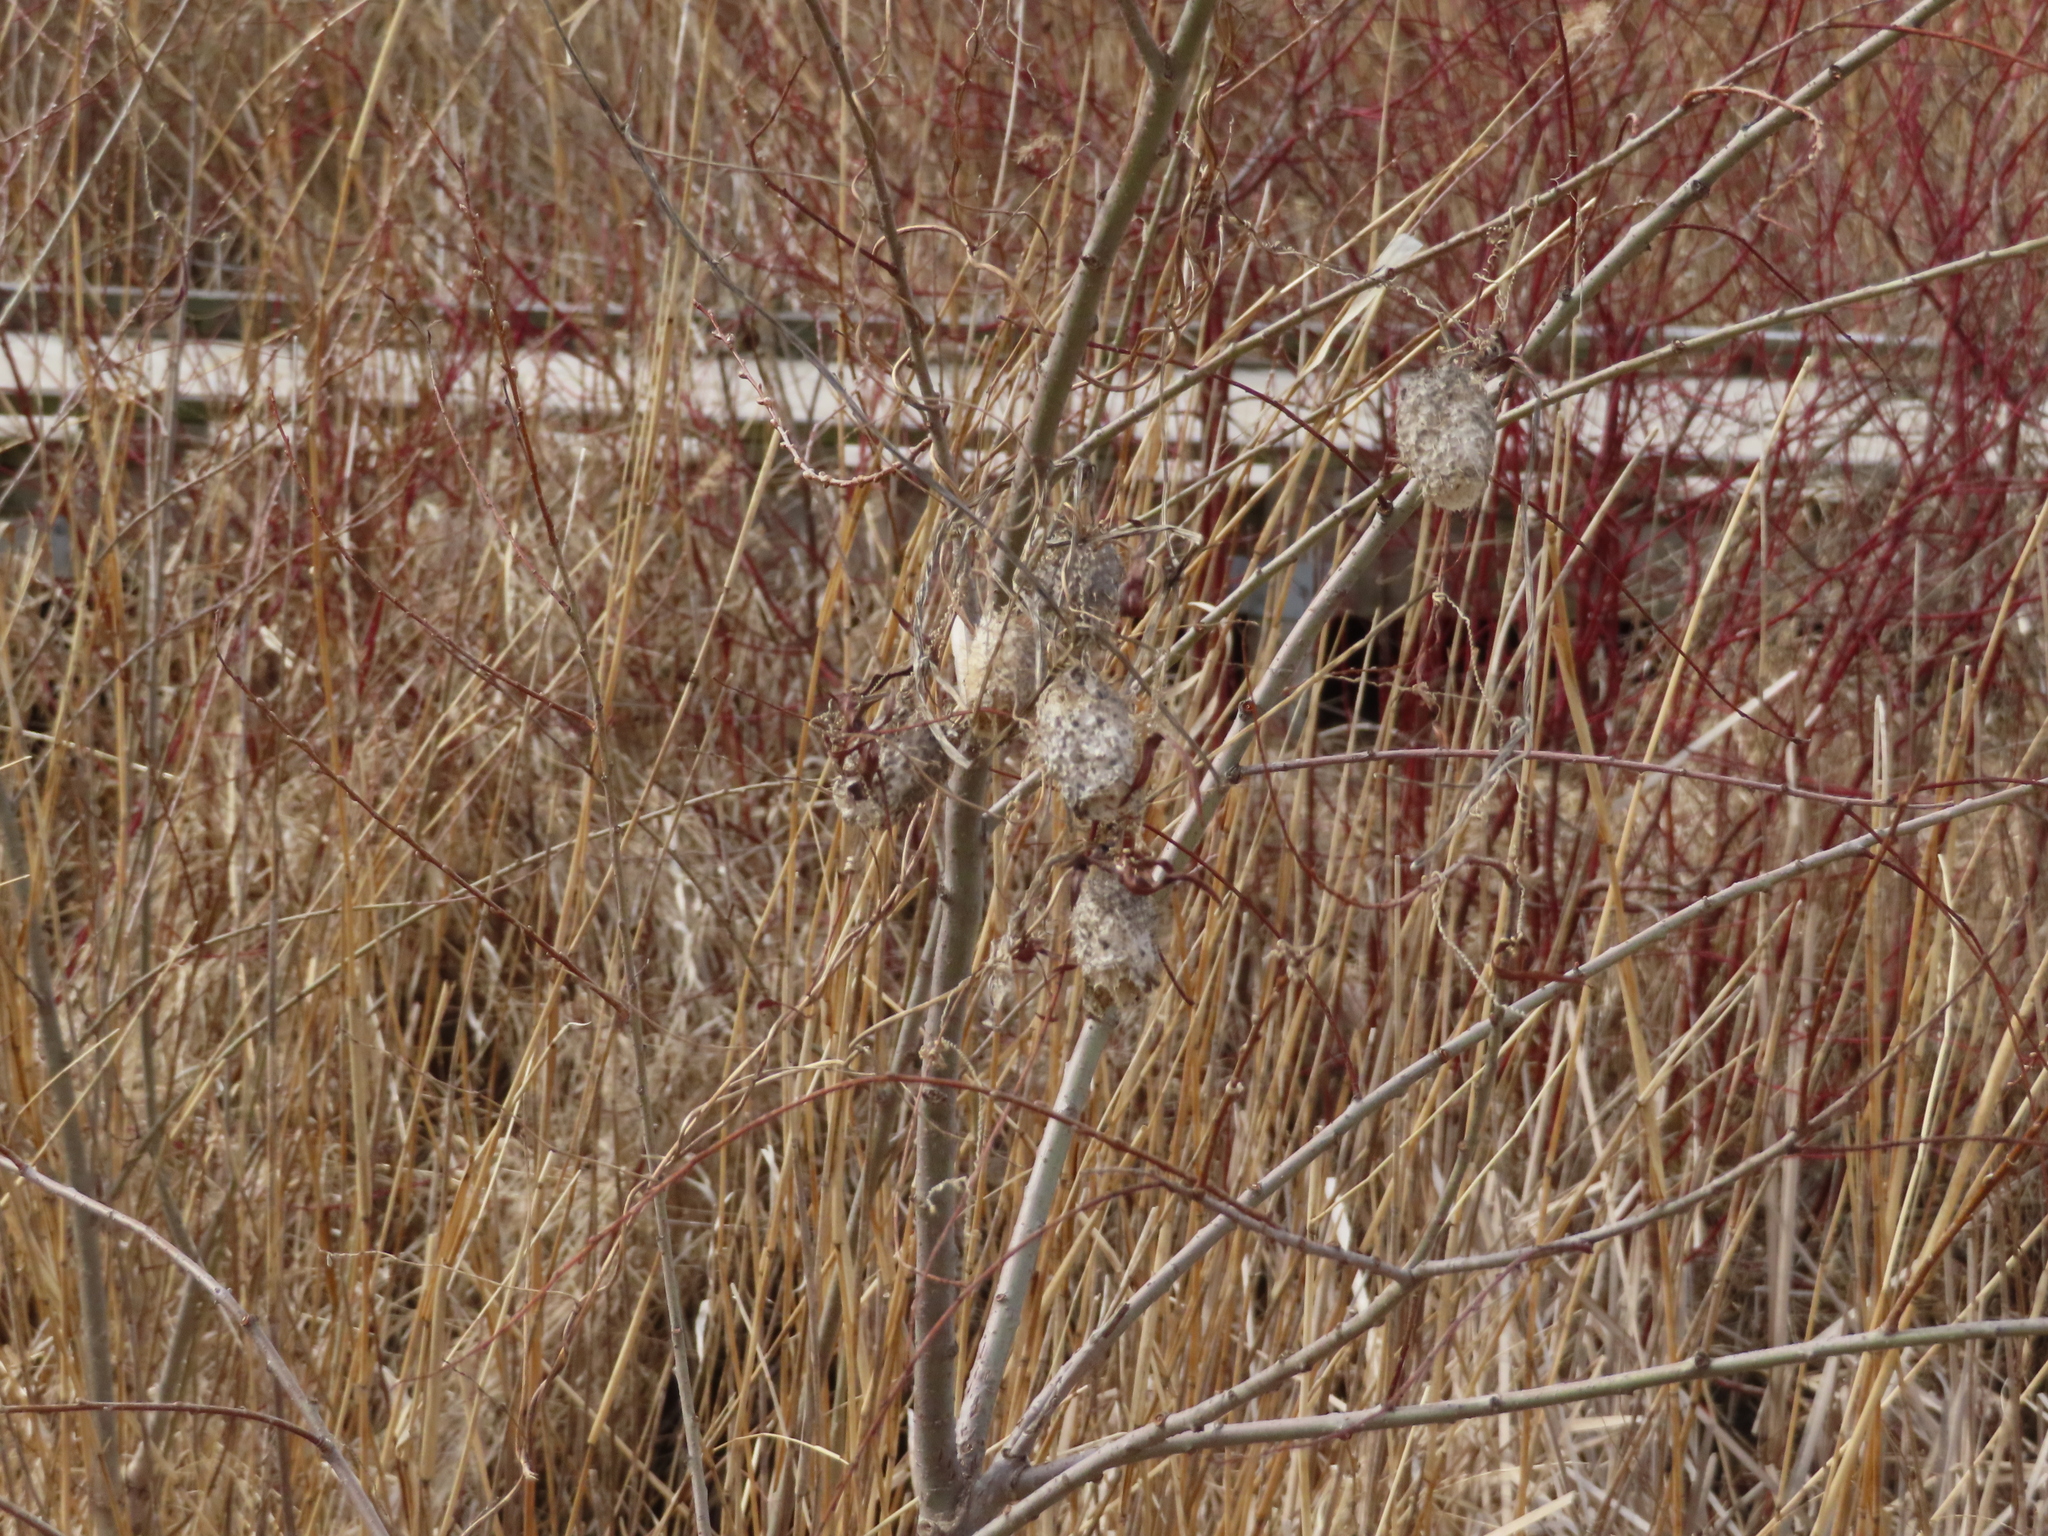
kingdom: Plantae
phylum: Tracheophyta
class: Magnoliopsida
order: Cucurbitales
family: Cucurbitaceae
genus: Echinocystis
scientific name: Echinocystis lobata
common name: Wild cucumber
